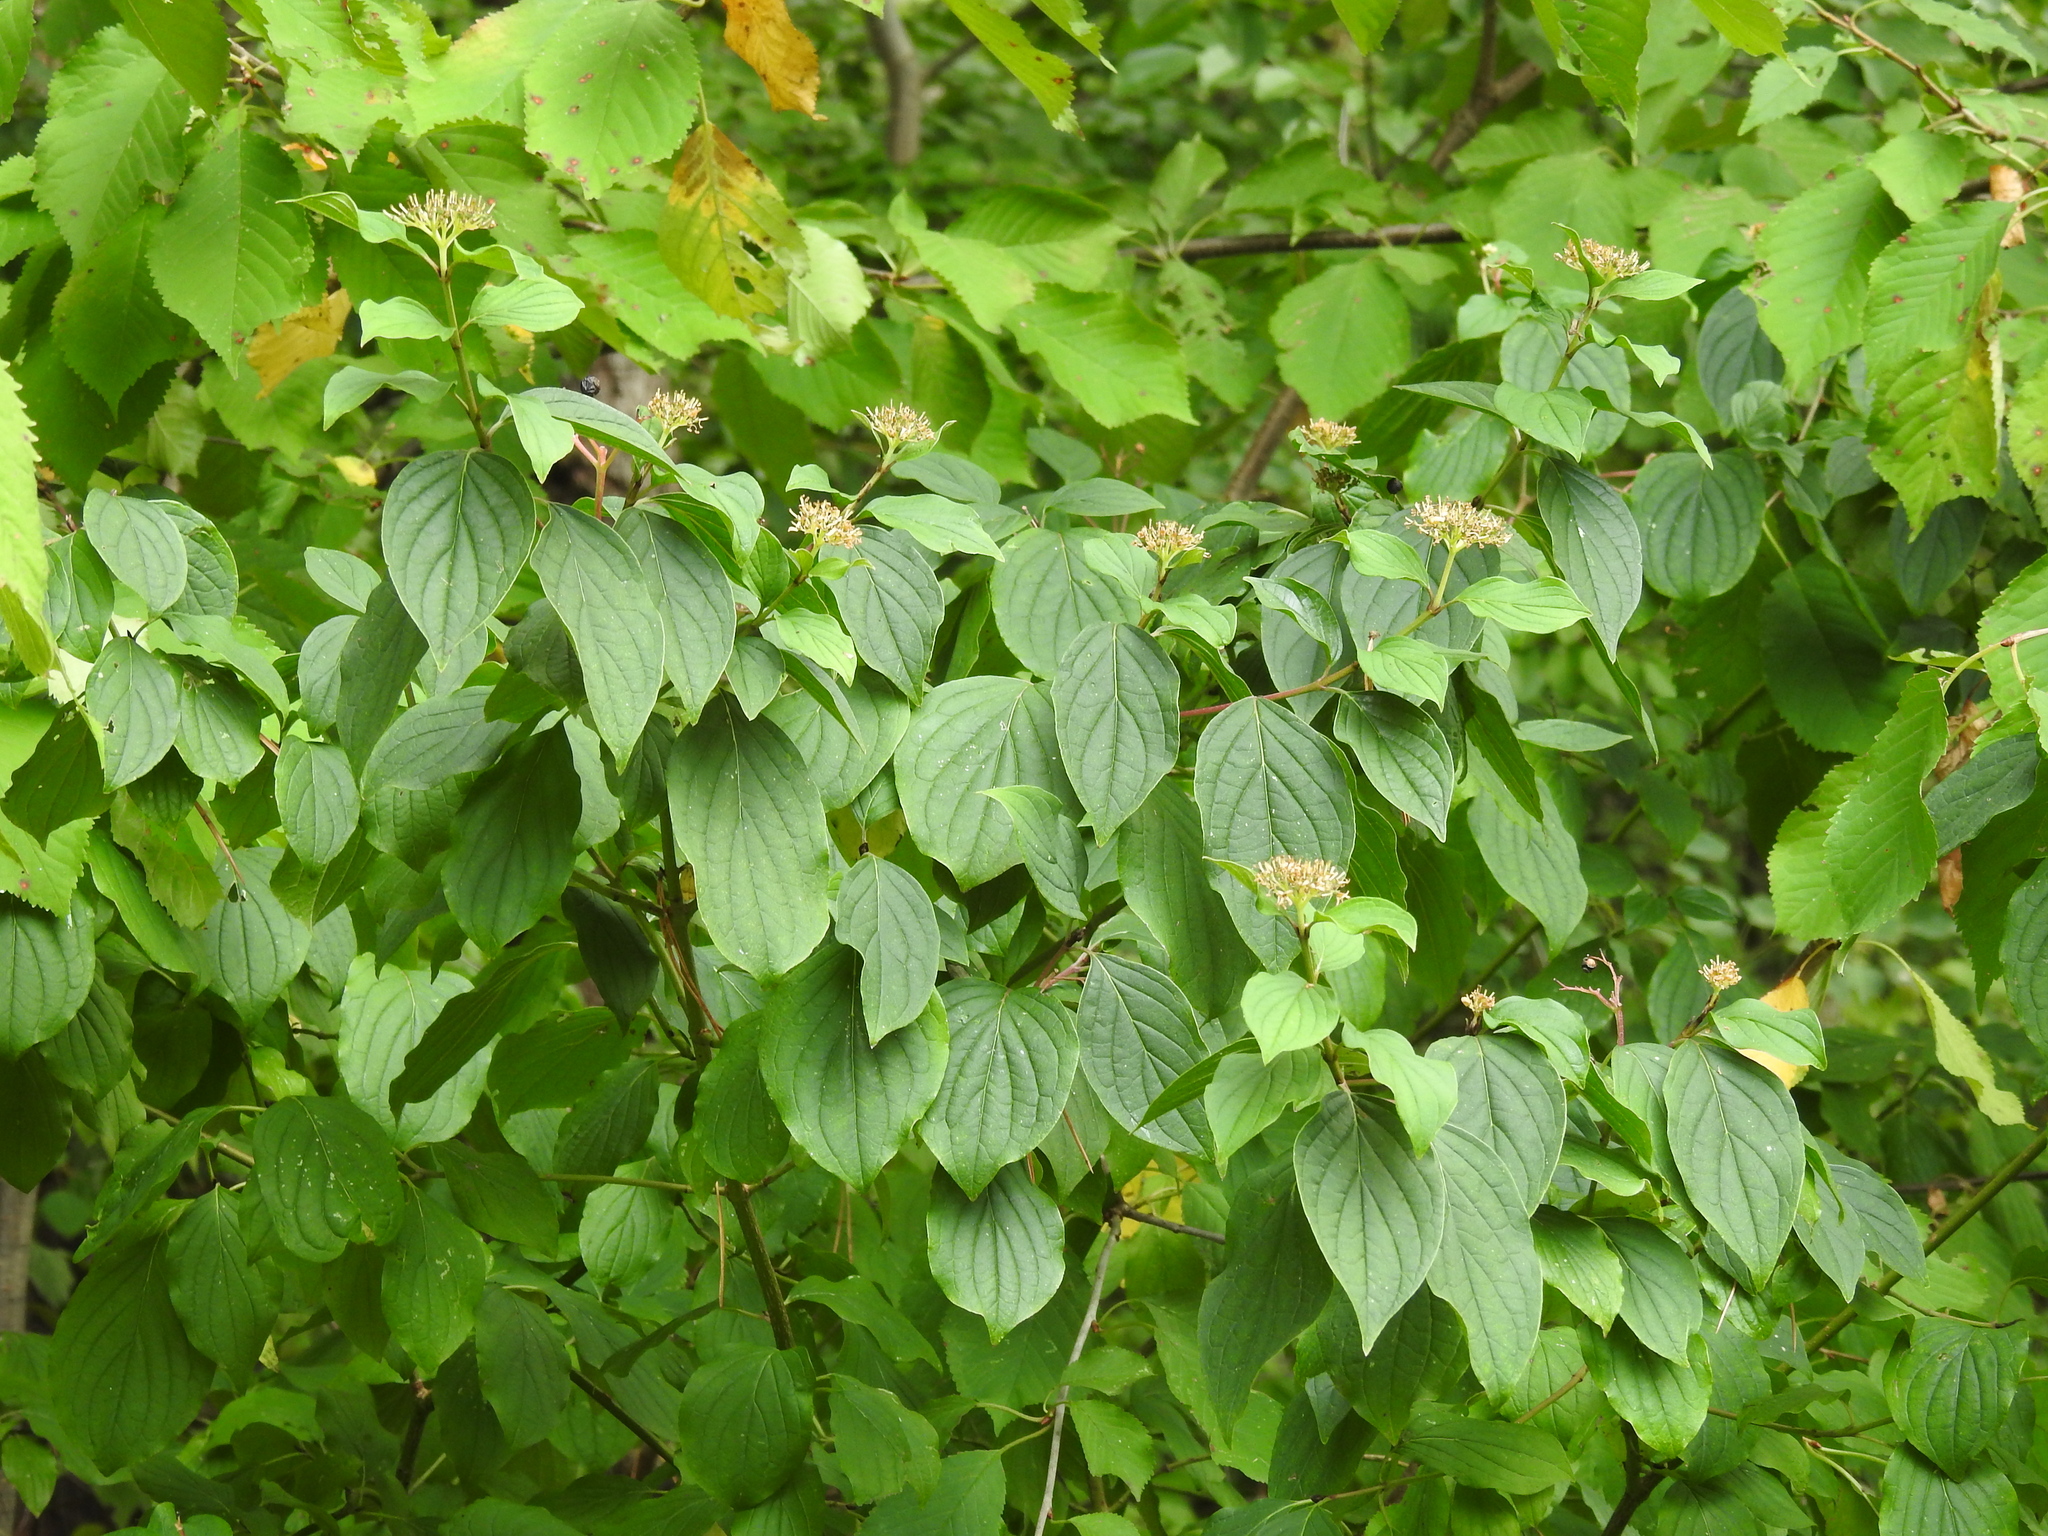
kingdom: Plantae
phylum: Tracheophyta
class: Magnoliopsida
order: Cornales
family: Cornaceae
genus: Cornus
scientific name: Cornus sanguinea
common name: Dogwood
